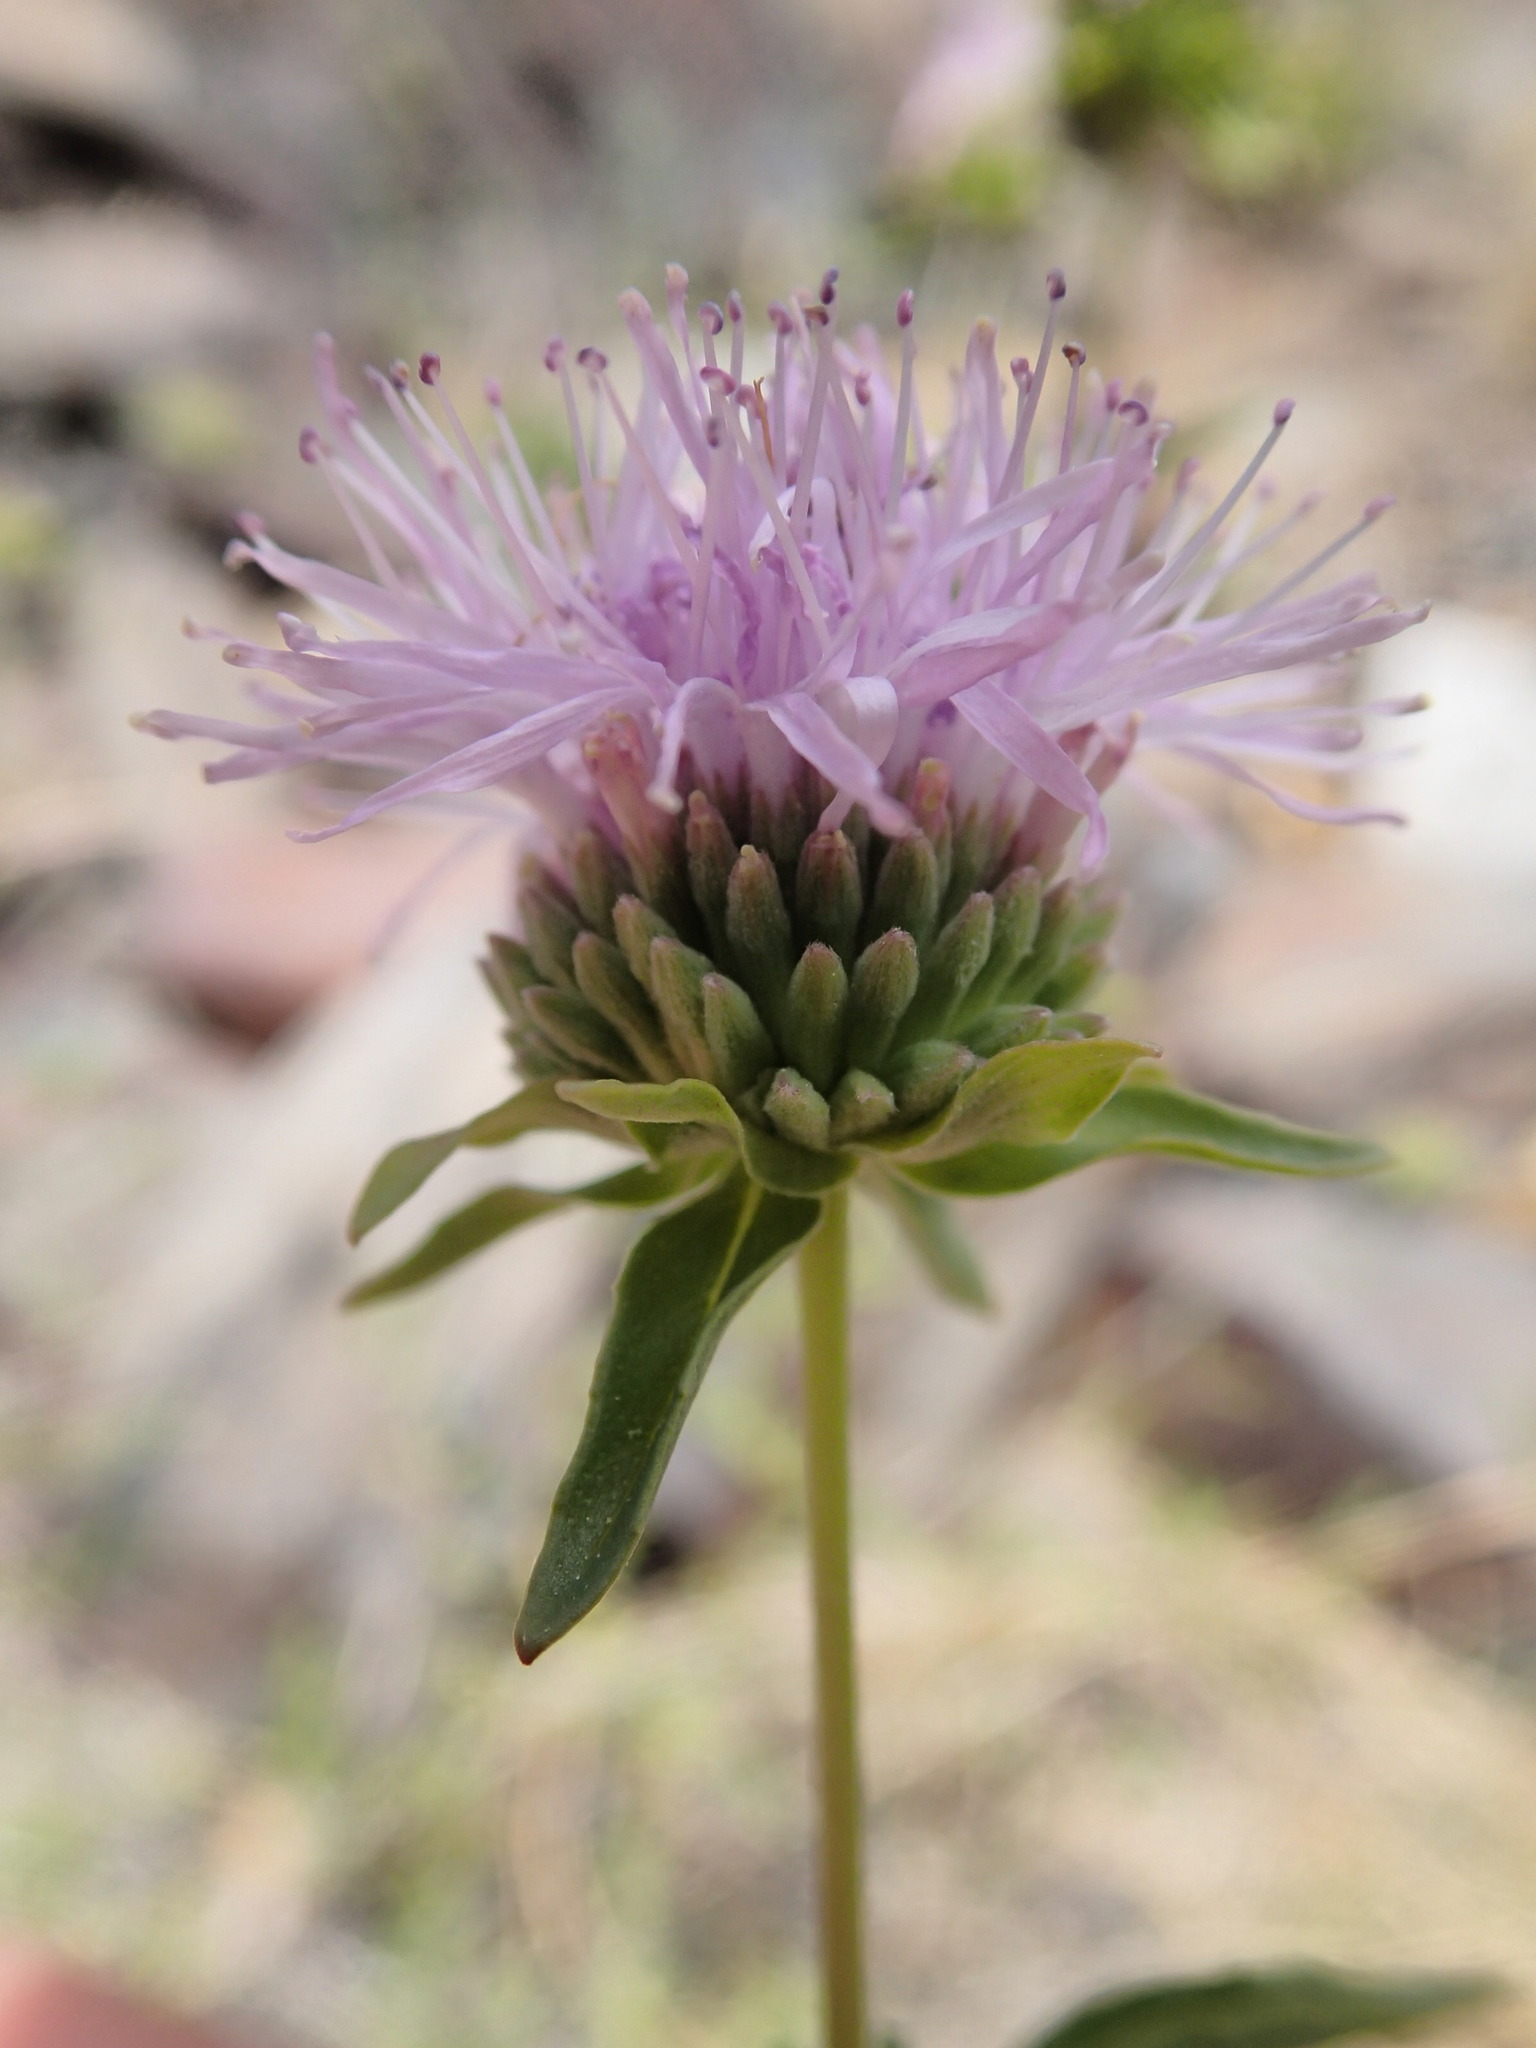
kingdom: Plantae
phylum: Tracheophyta
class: Magnoliopsida
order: Lamiales
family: Lamiaceae
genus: Monardella
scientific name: Monardella sheltonii
